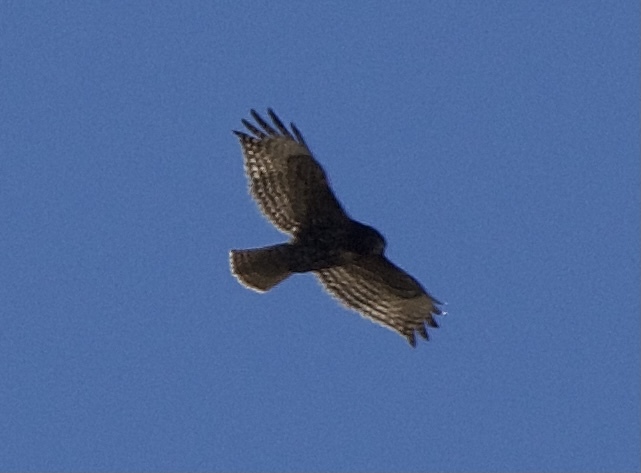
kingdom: Animalia
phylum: Chordata
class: Aves
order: Accipitriformes
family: Accipitridae
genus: Buteo
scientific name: Buteo jamaicensis
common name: Red-tailed hawk
